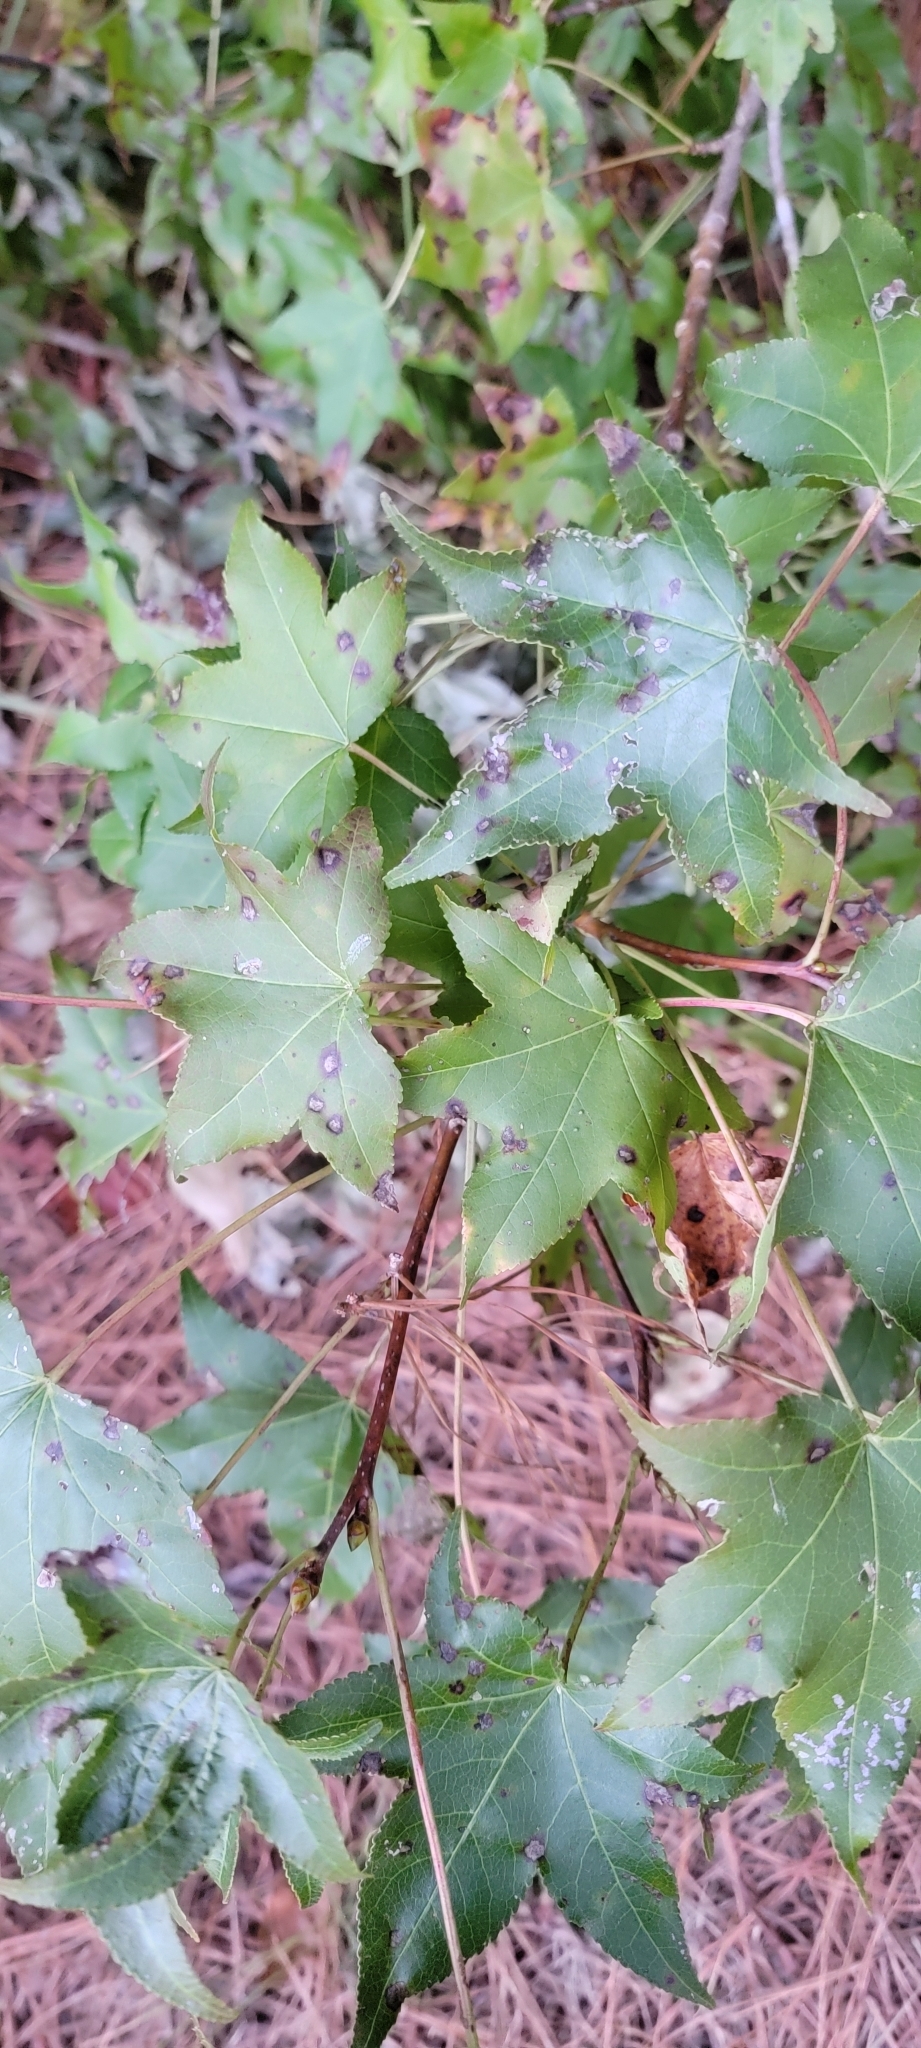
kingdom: Plantae
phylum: Tracheophyta
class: Magnoliopsida
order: Saxifragales
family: Altingiaceae
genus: Liquidambar
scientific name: Liquidambar styraciflua
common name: Sweet gum
